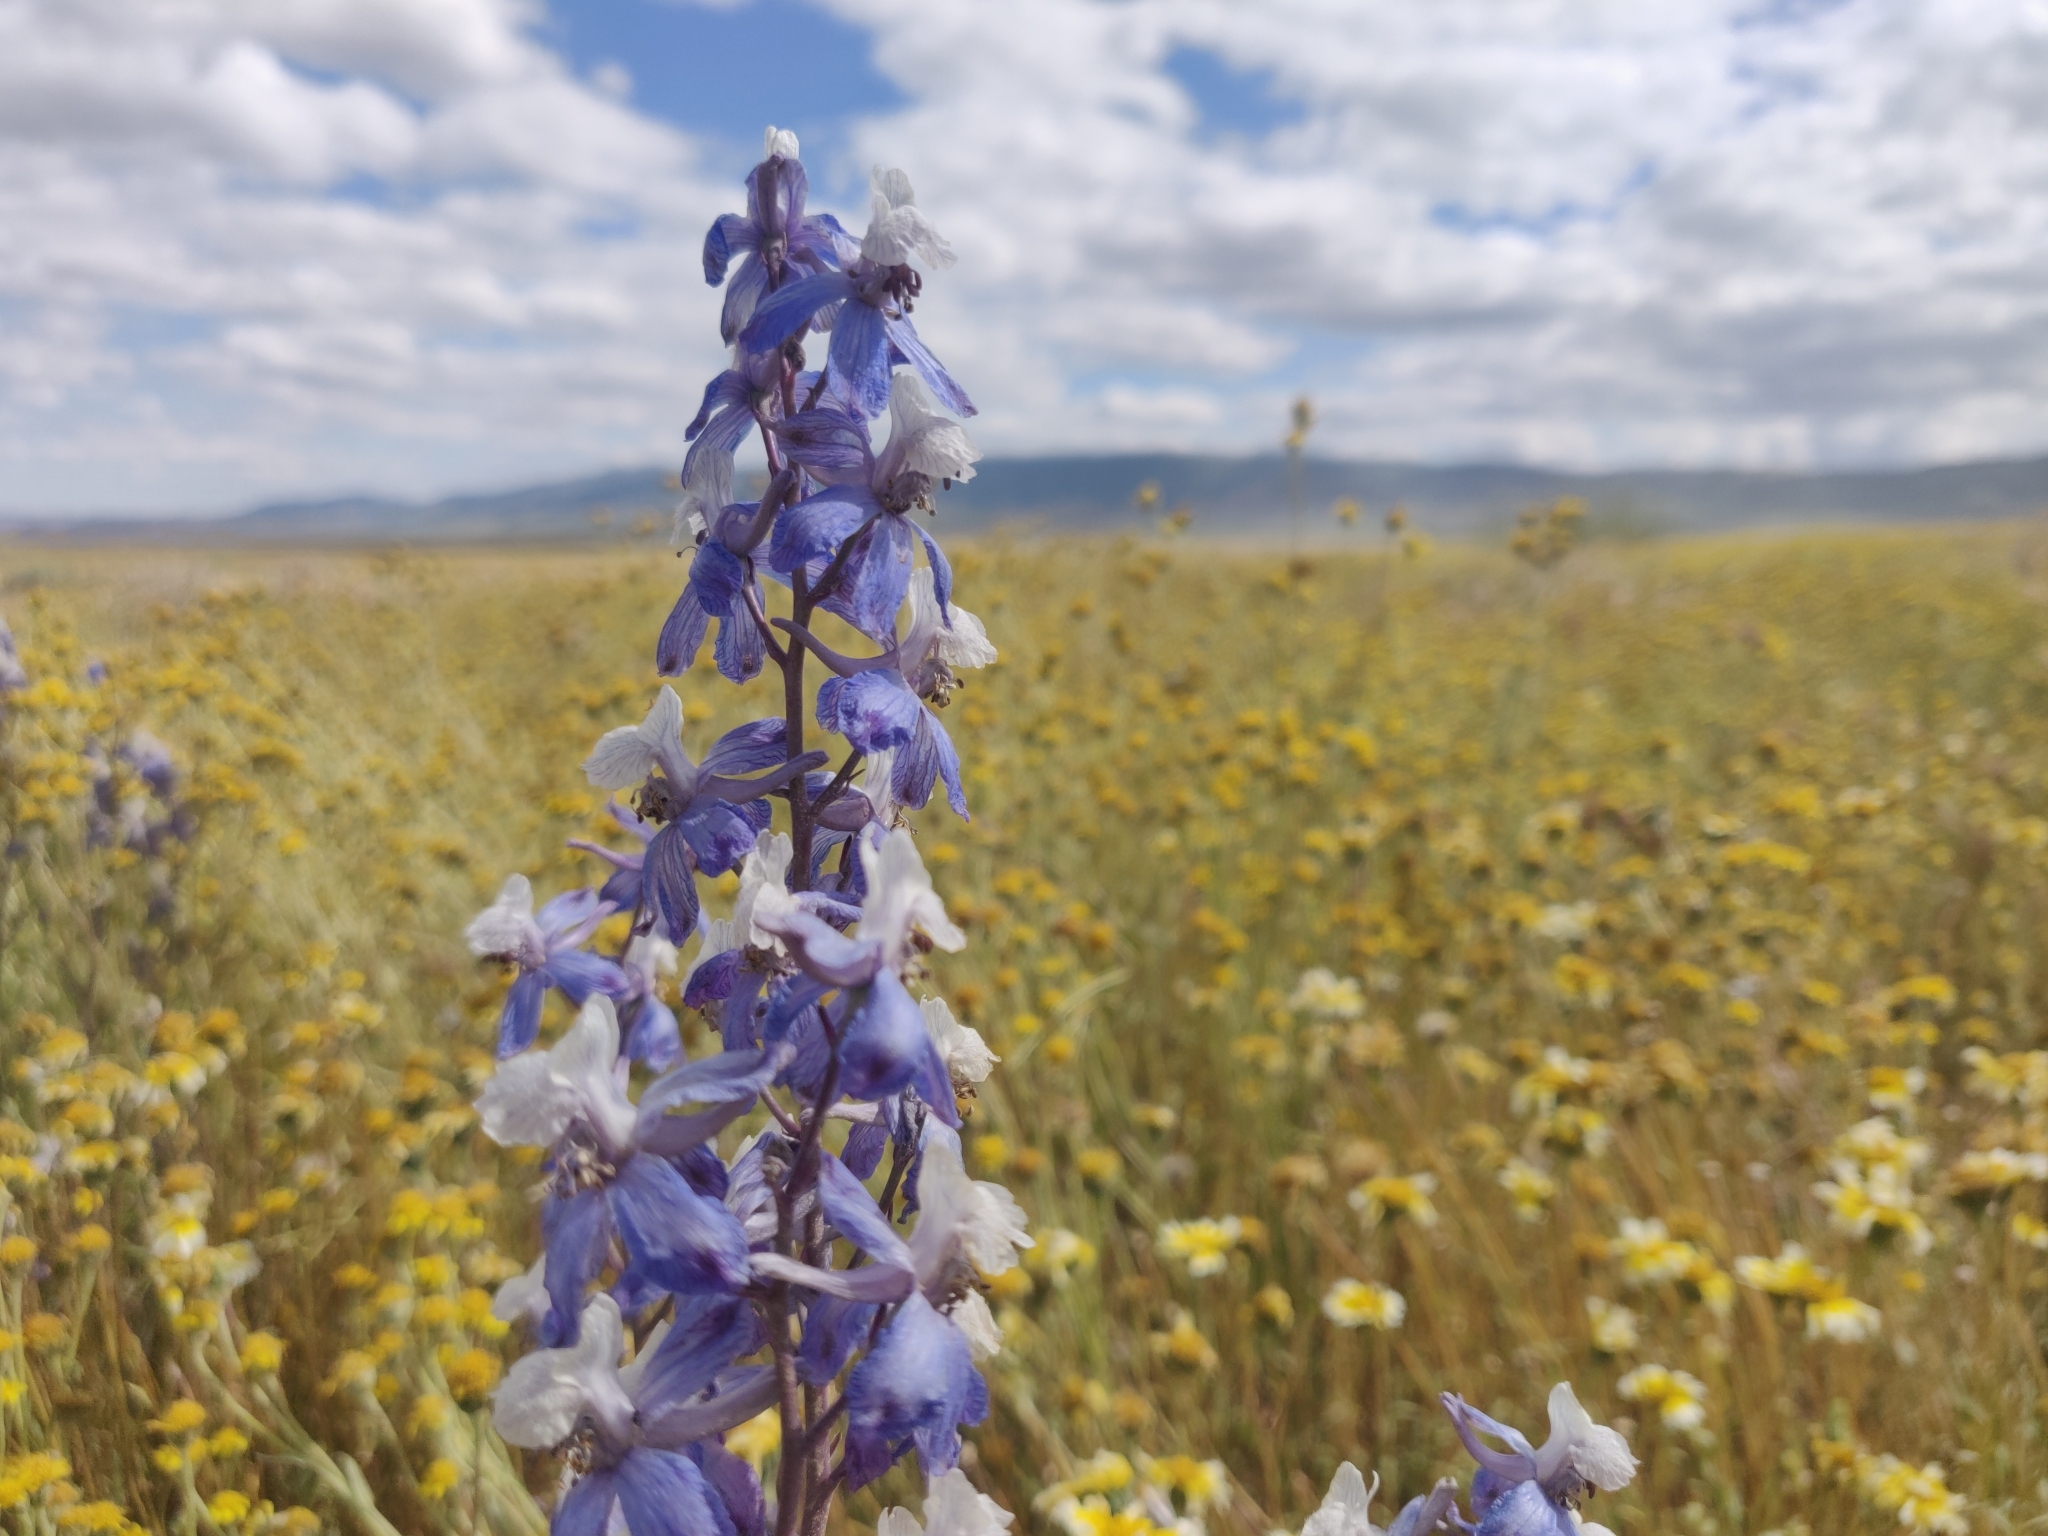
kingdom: Plantae
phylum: Tracheophyta
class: Magnoliopsida
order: Ranunculales
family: Ranunculaceae
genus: Delphinium
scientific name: Delphinium parryi
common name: Parry's larkspur
